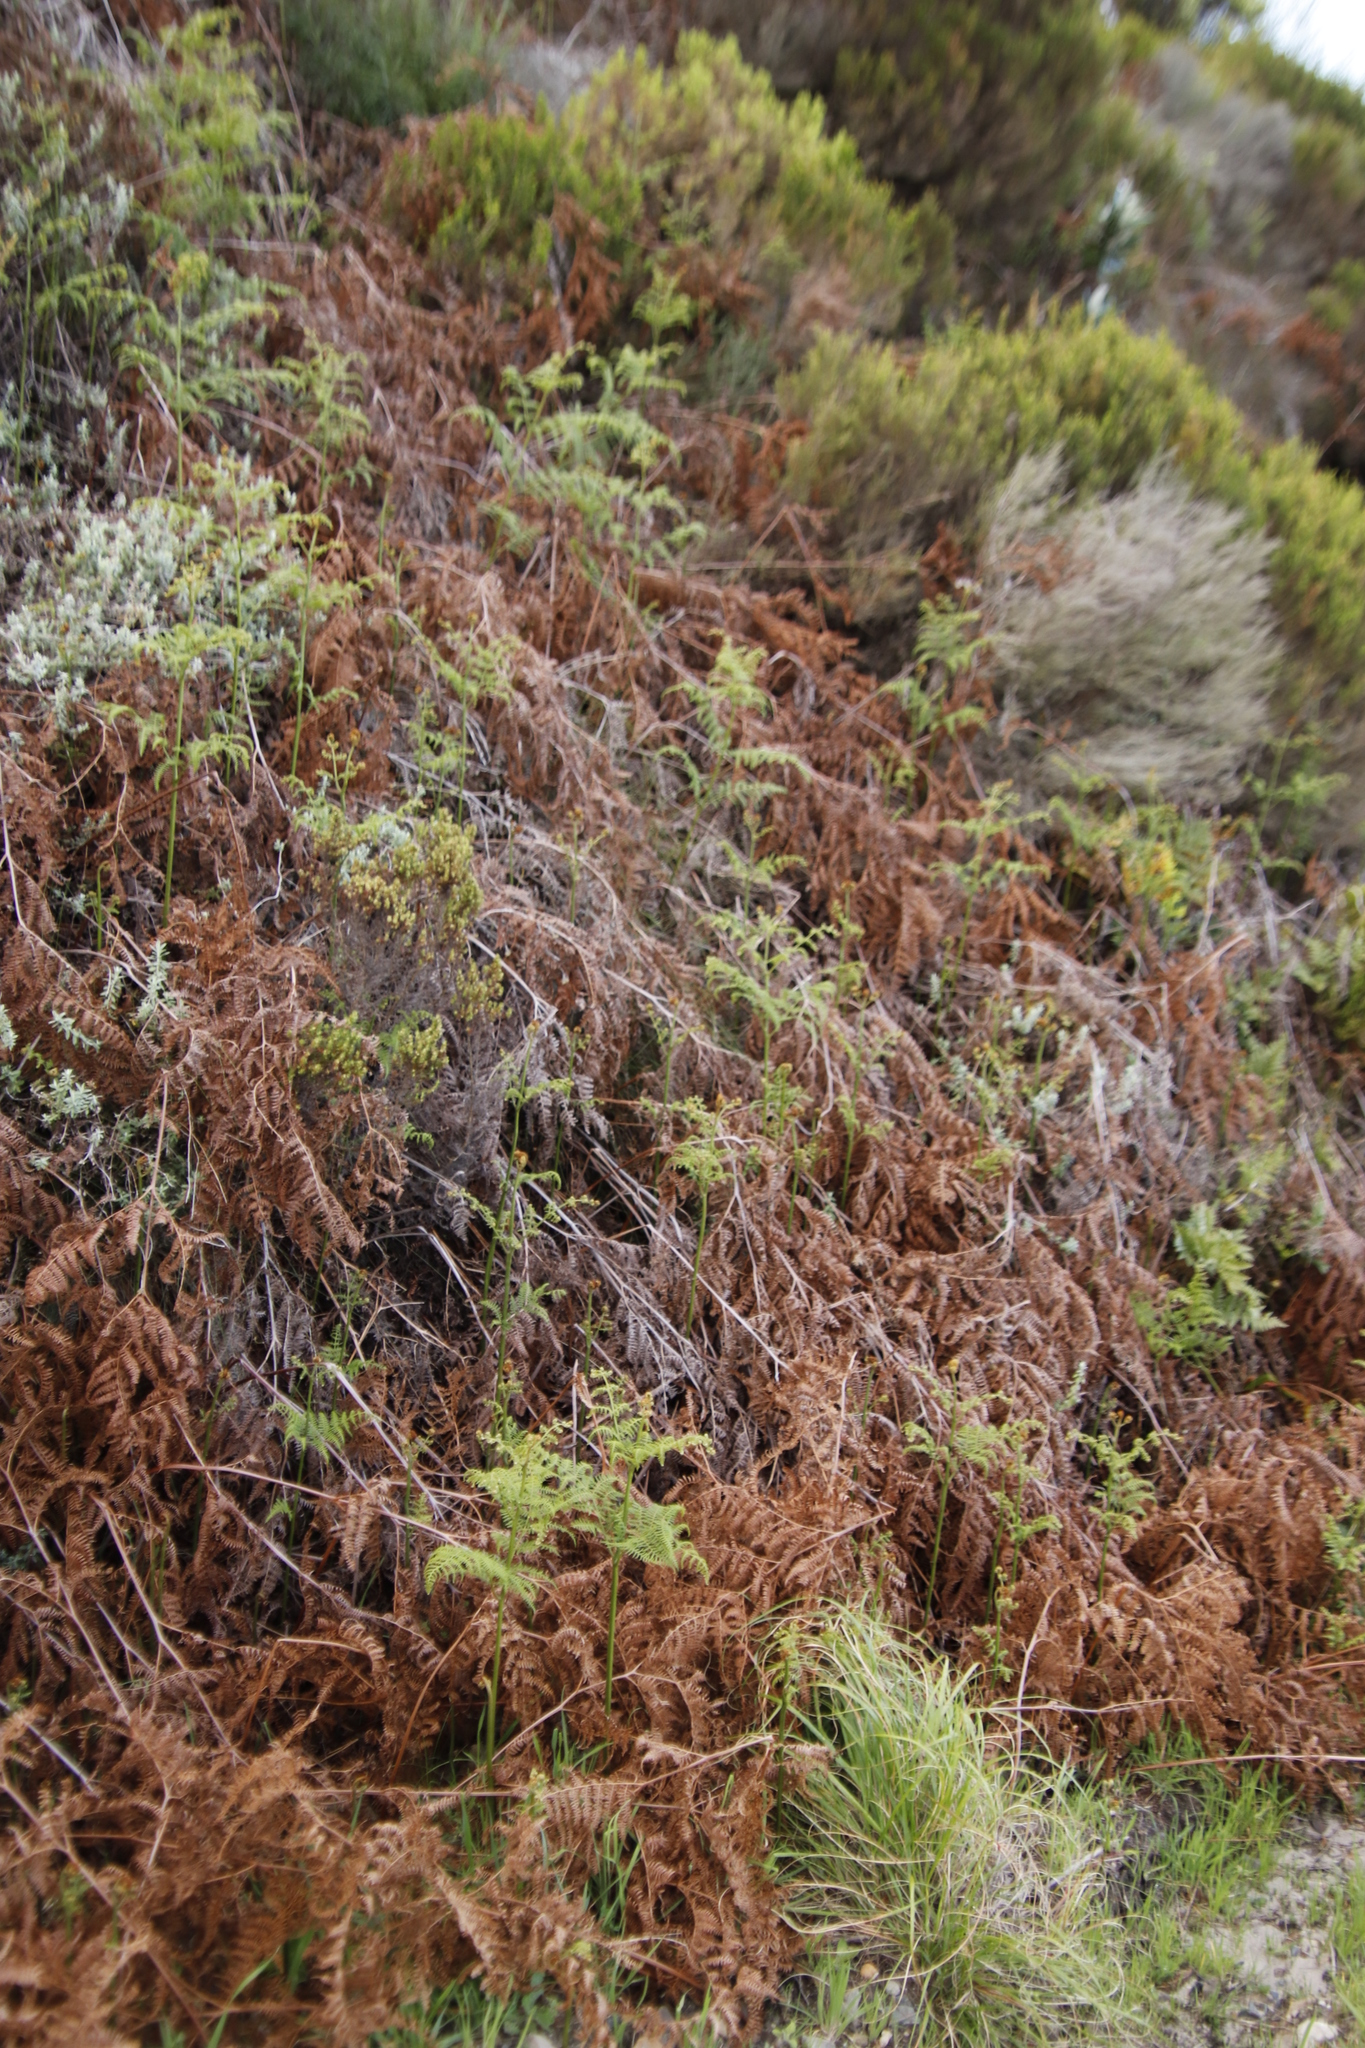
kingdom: Plantae
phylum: Tracheophyta
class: Polypodiopsida
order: Polypodiales
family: Dennstaedtiaceae
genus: Pteridium
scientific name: Pteridium aquilinum
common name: Bracken
